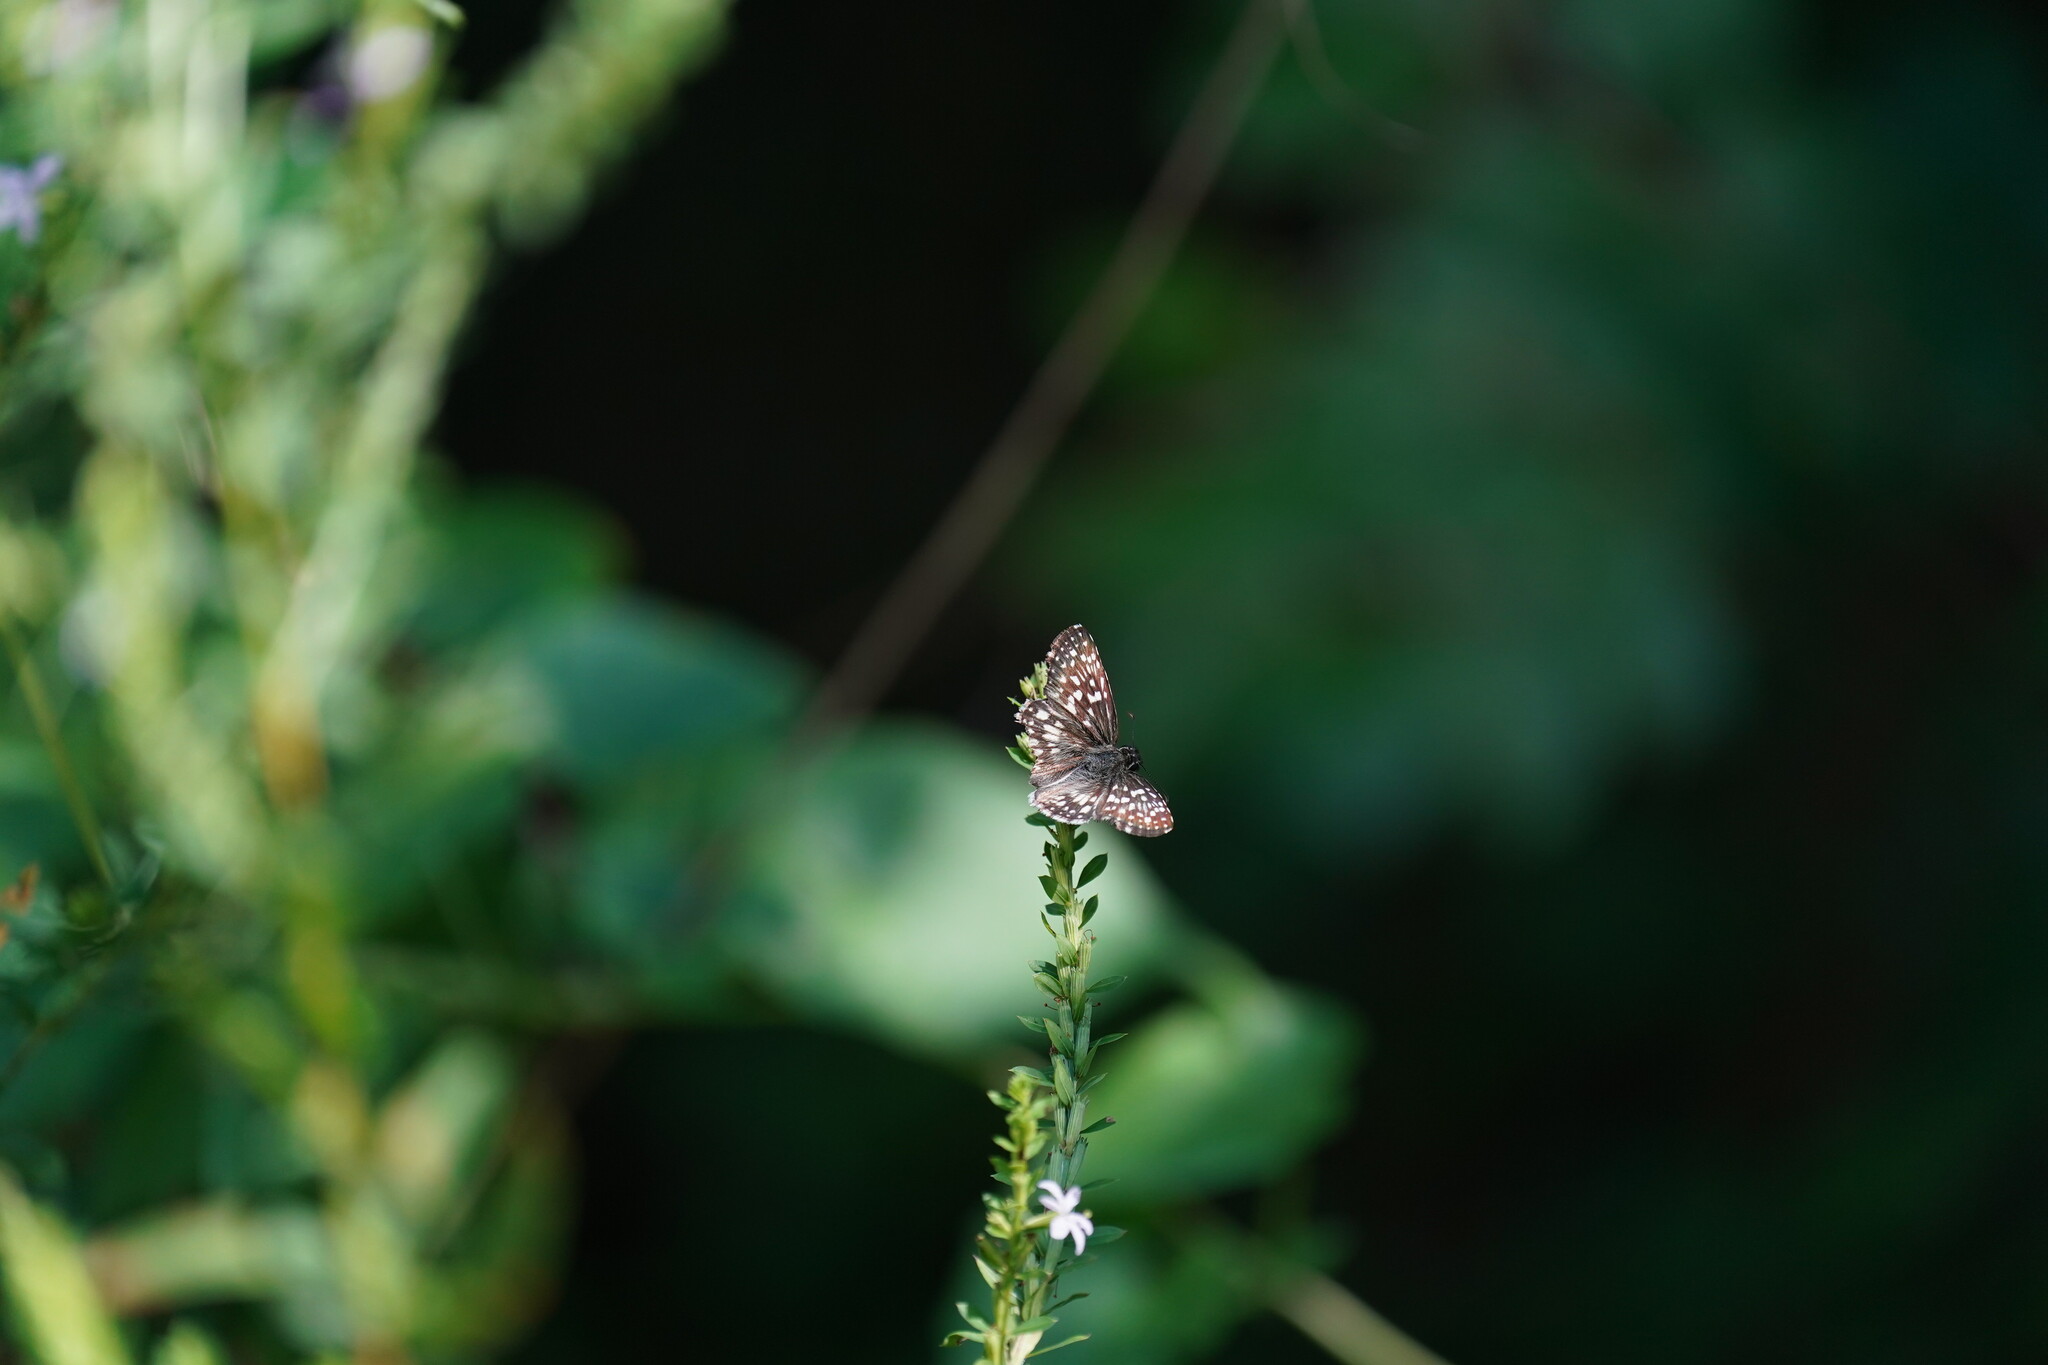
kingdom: Animalia
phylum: Arthropoda
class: Insecta
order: Lepidoptera
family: Hesperiidae
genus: Pyrgus
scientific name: Pyrgus oileus
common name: Tropical checkered-skipper
